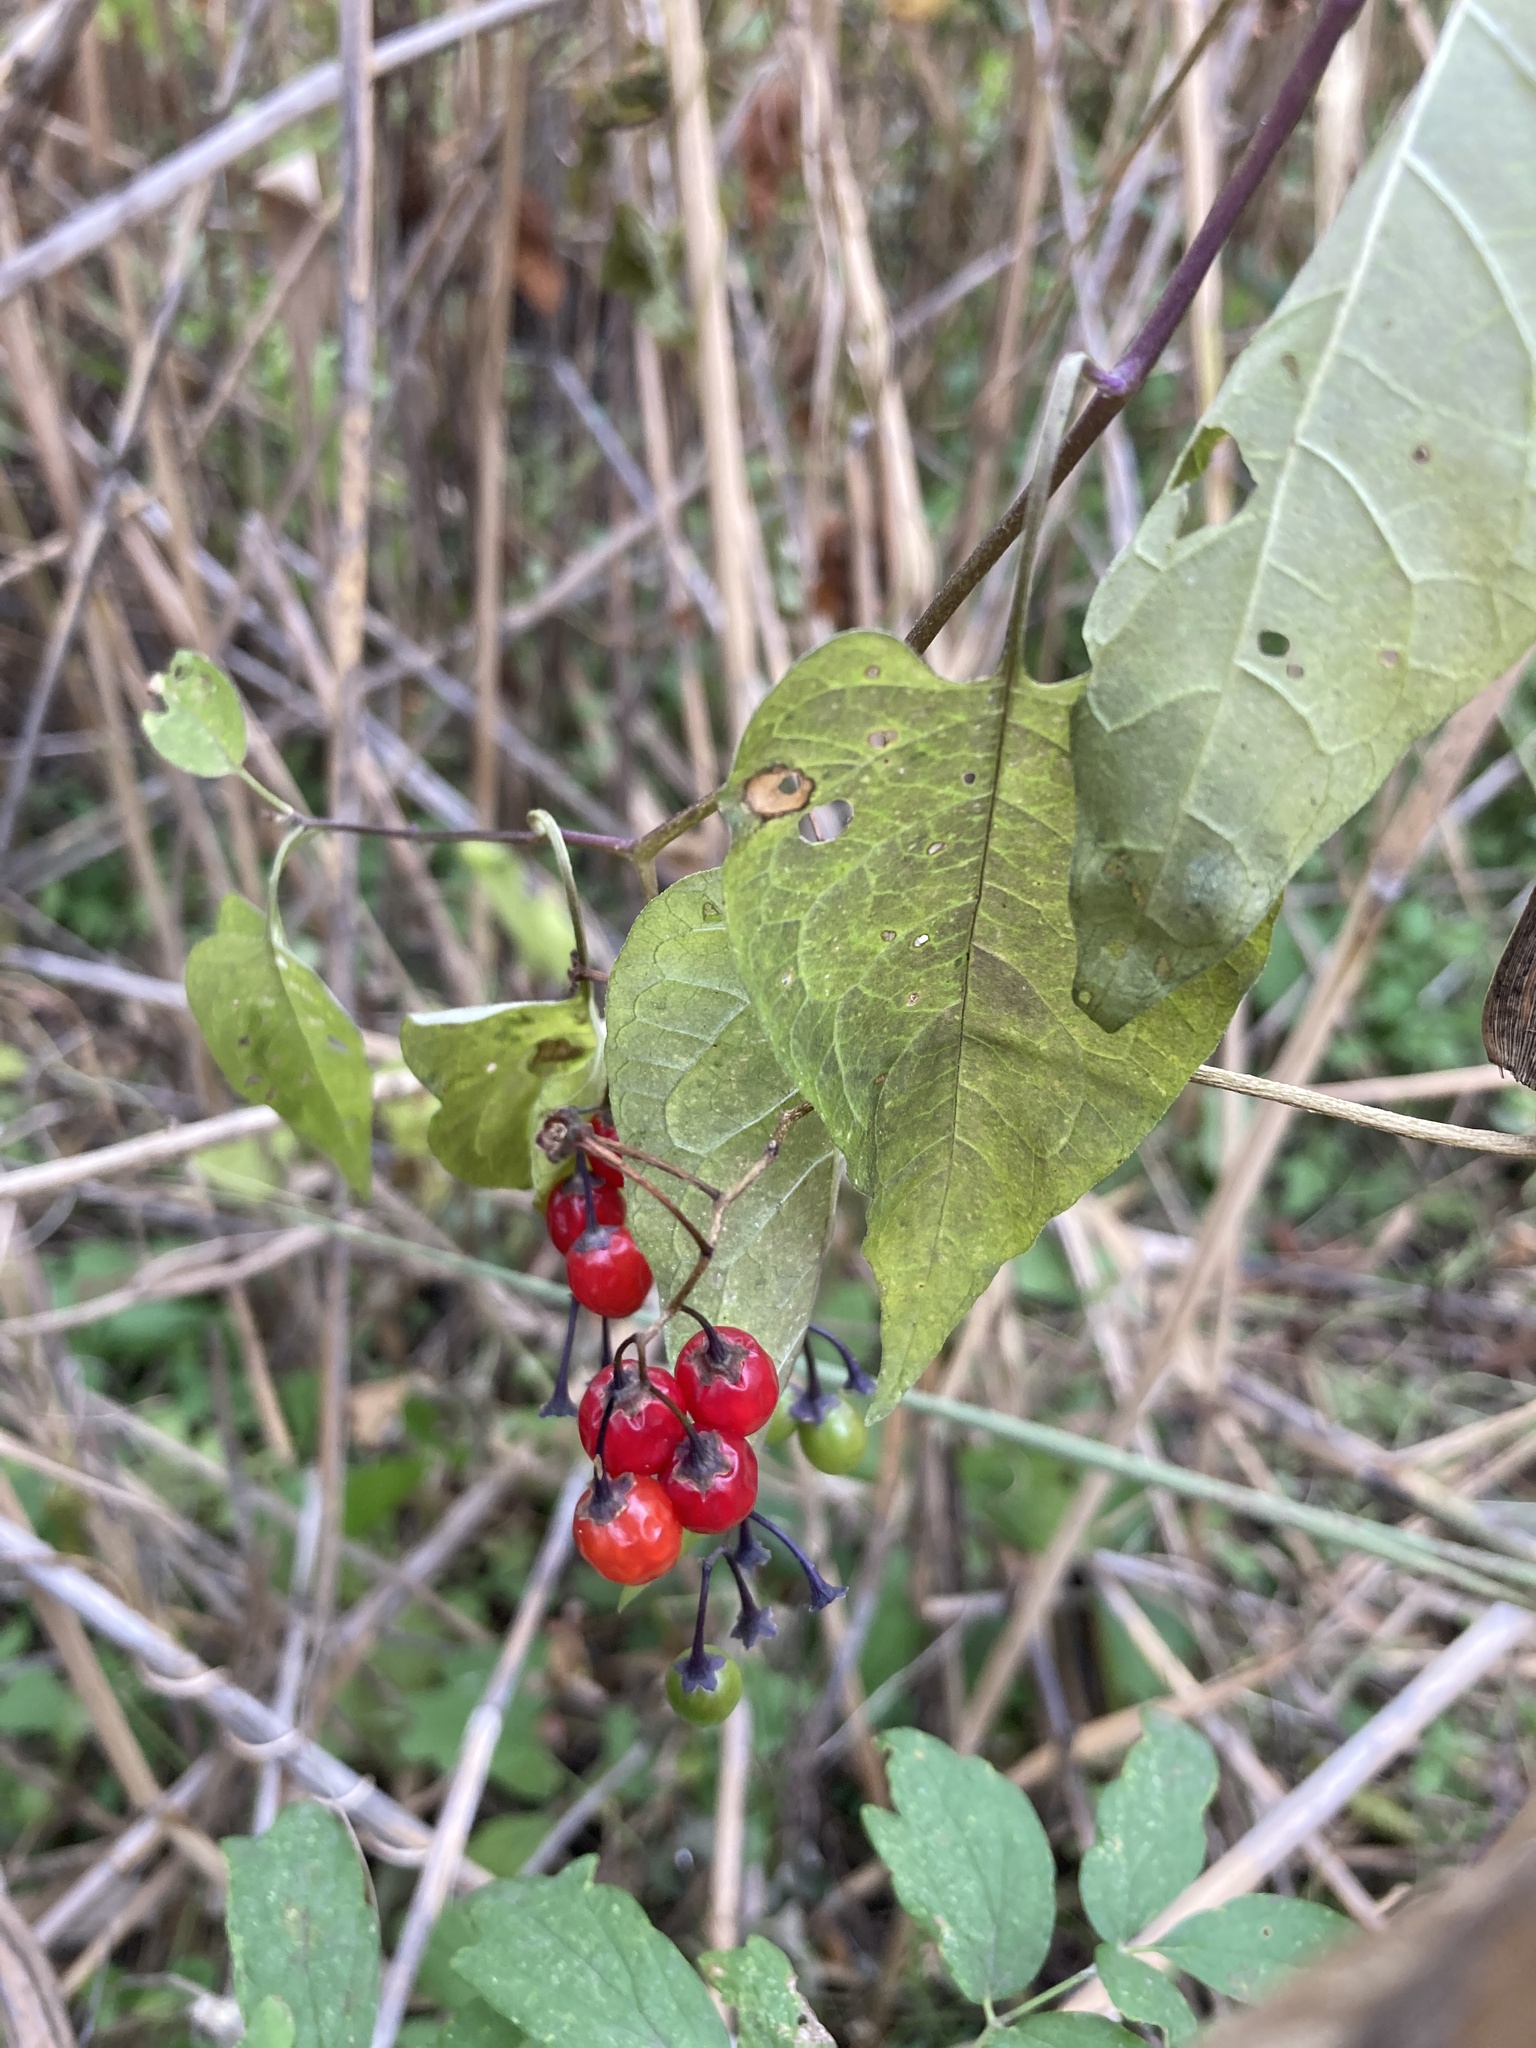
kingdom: Plantae
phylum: Tracheophyta
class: Magnoliopsida
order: Solanales
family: Solanaceae
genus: Solanum
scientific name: Solanum dulcamara
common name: Climbing nightshade
